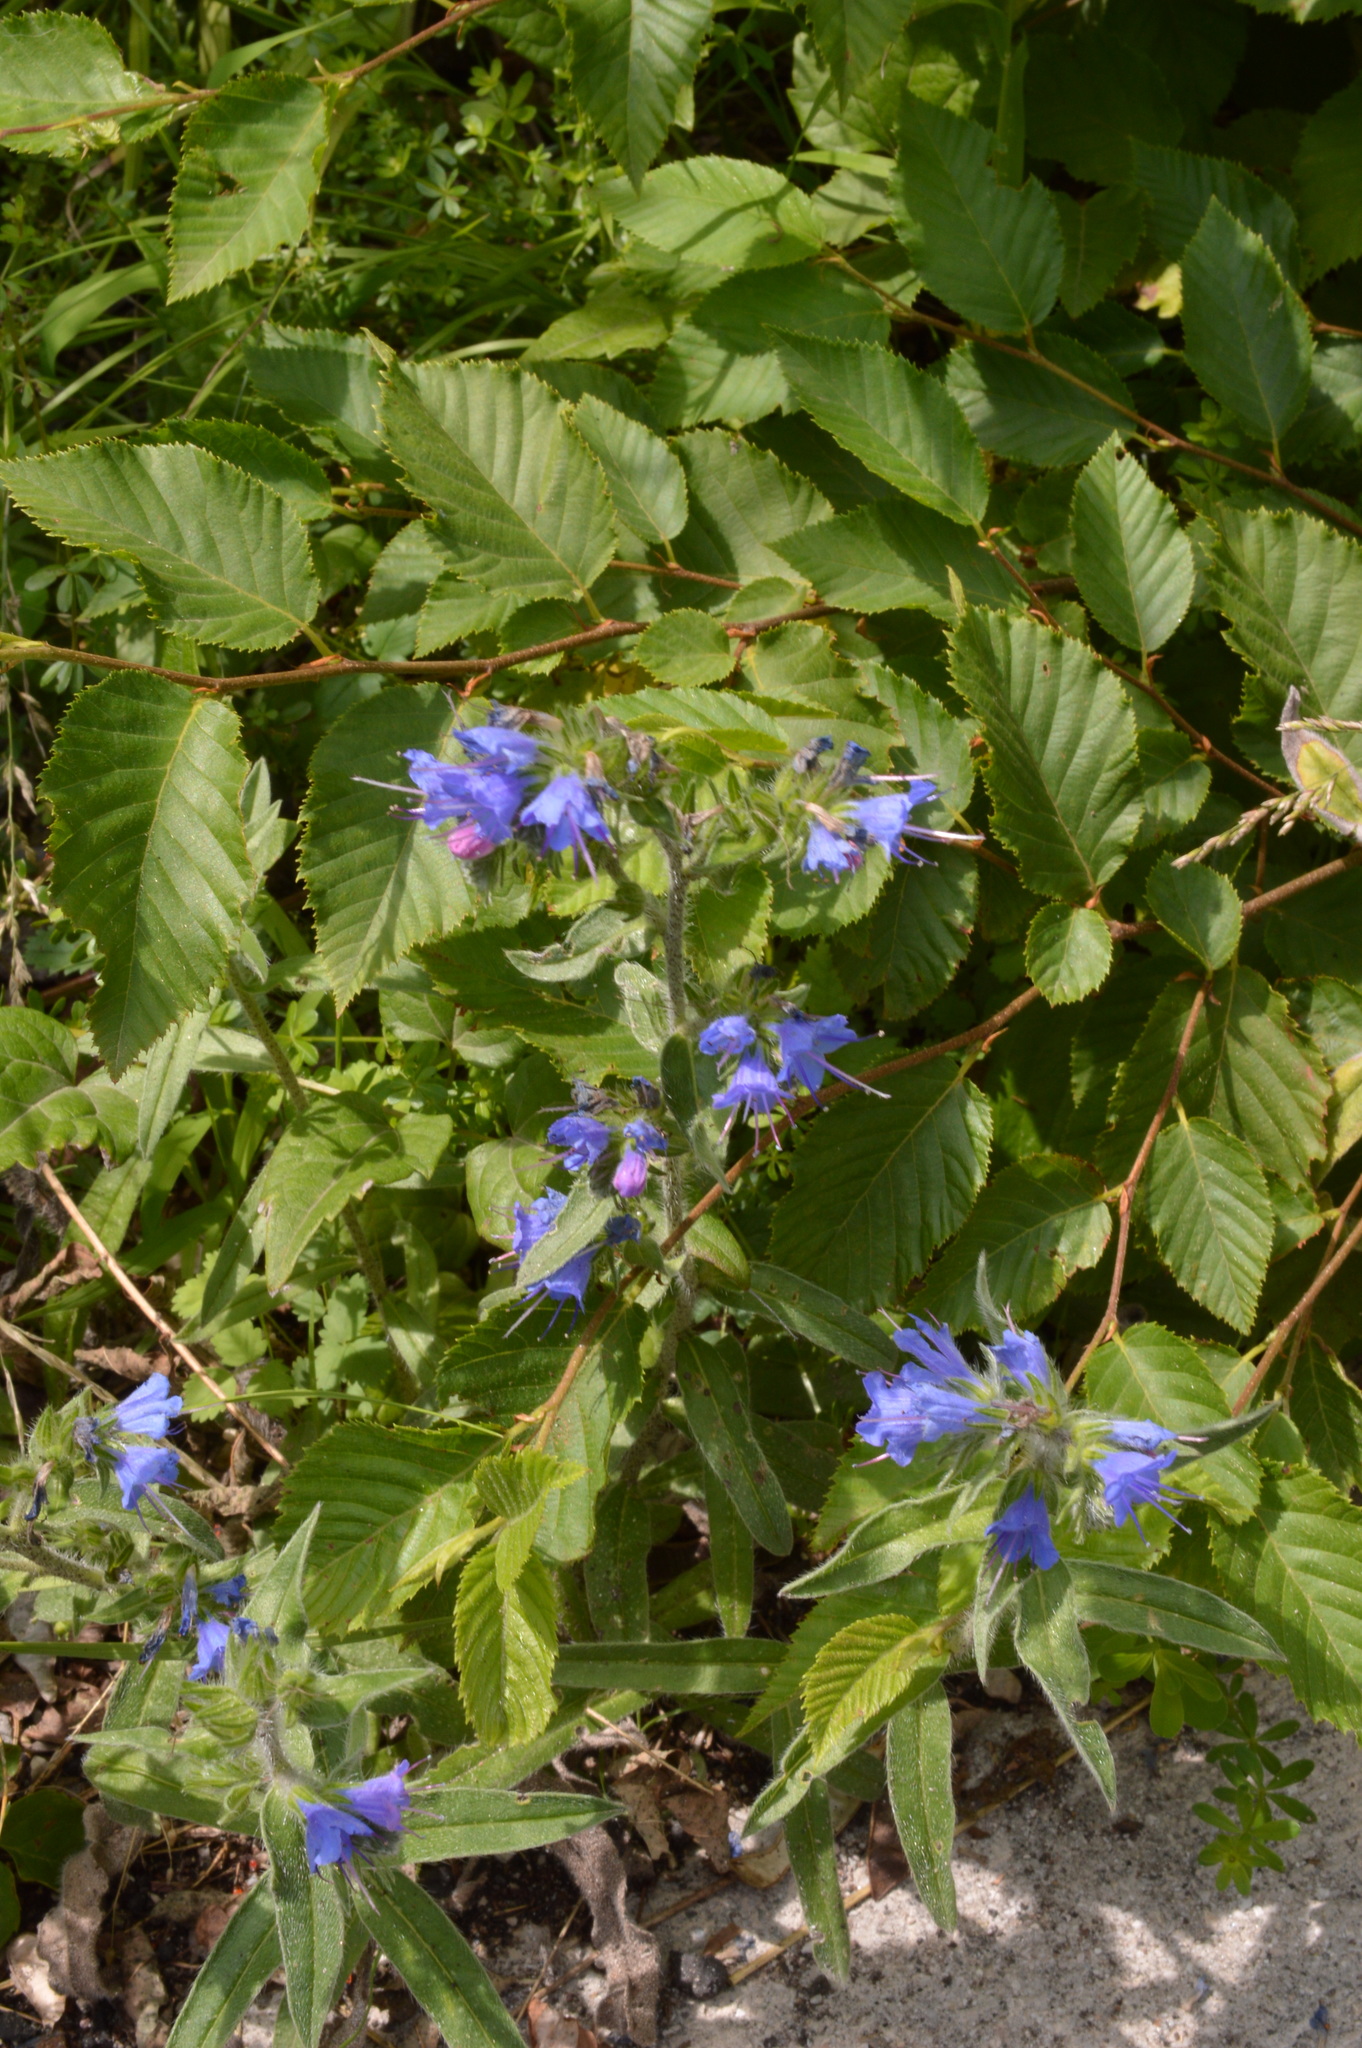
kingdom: Plantae
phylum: Tracheophyta
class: Magnoliopsida
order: Boraginales
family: Boraginaceae
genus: Echium
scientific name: Echium vulgare
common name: Common viper's bugloss
